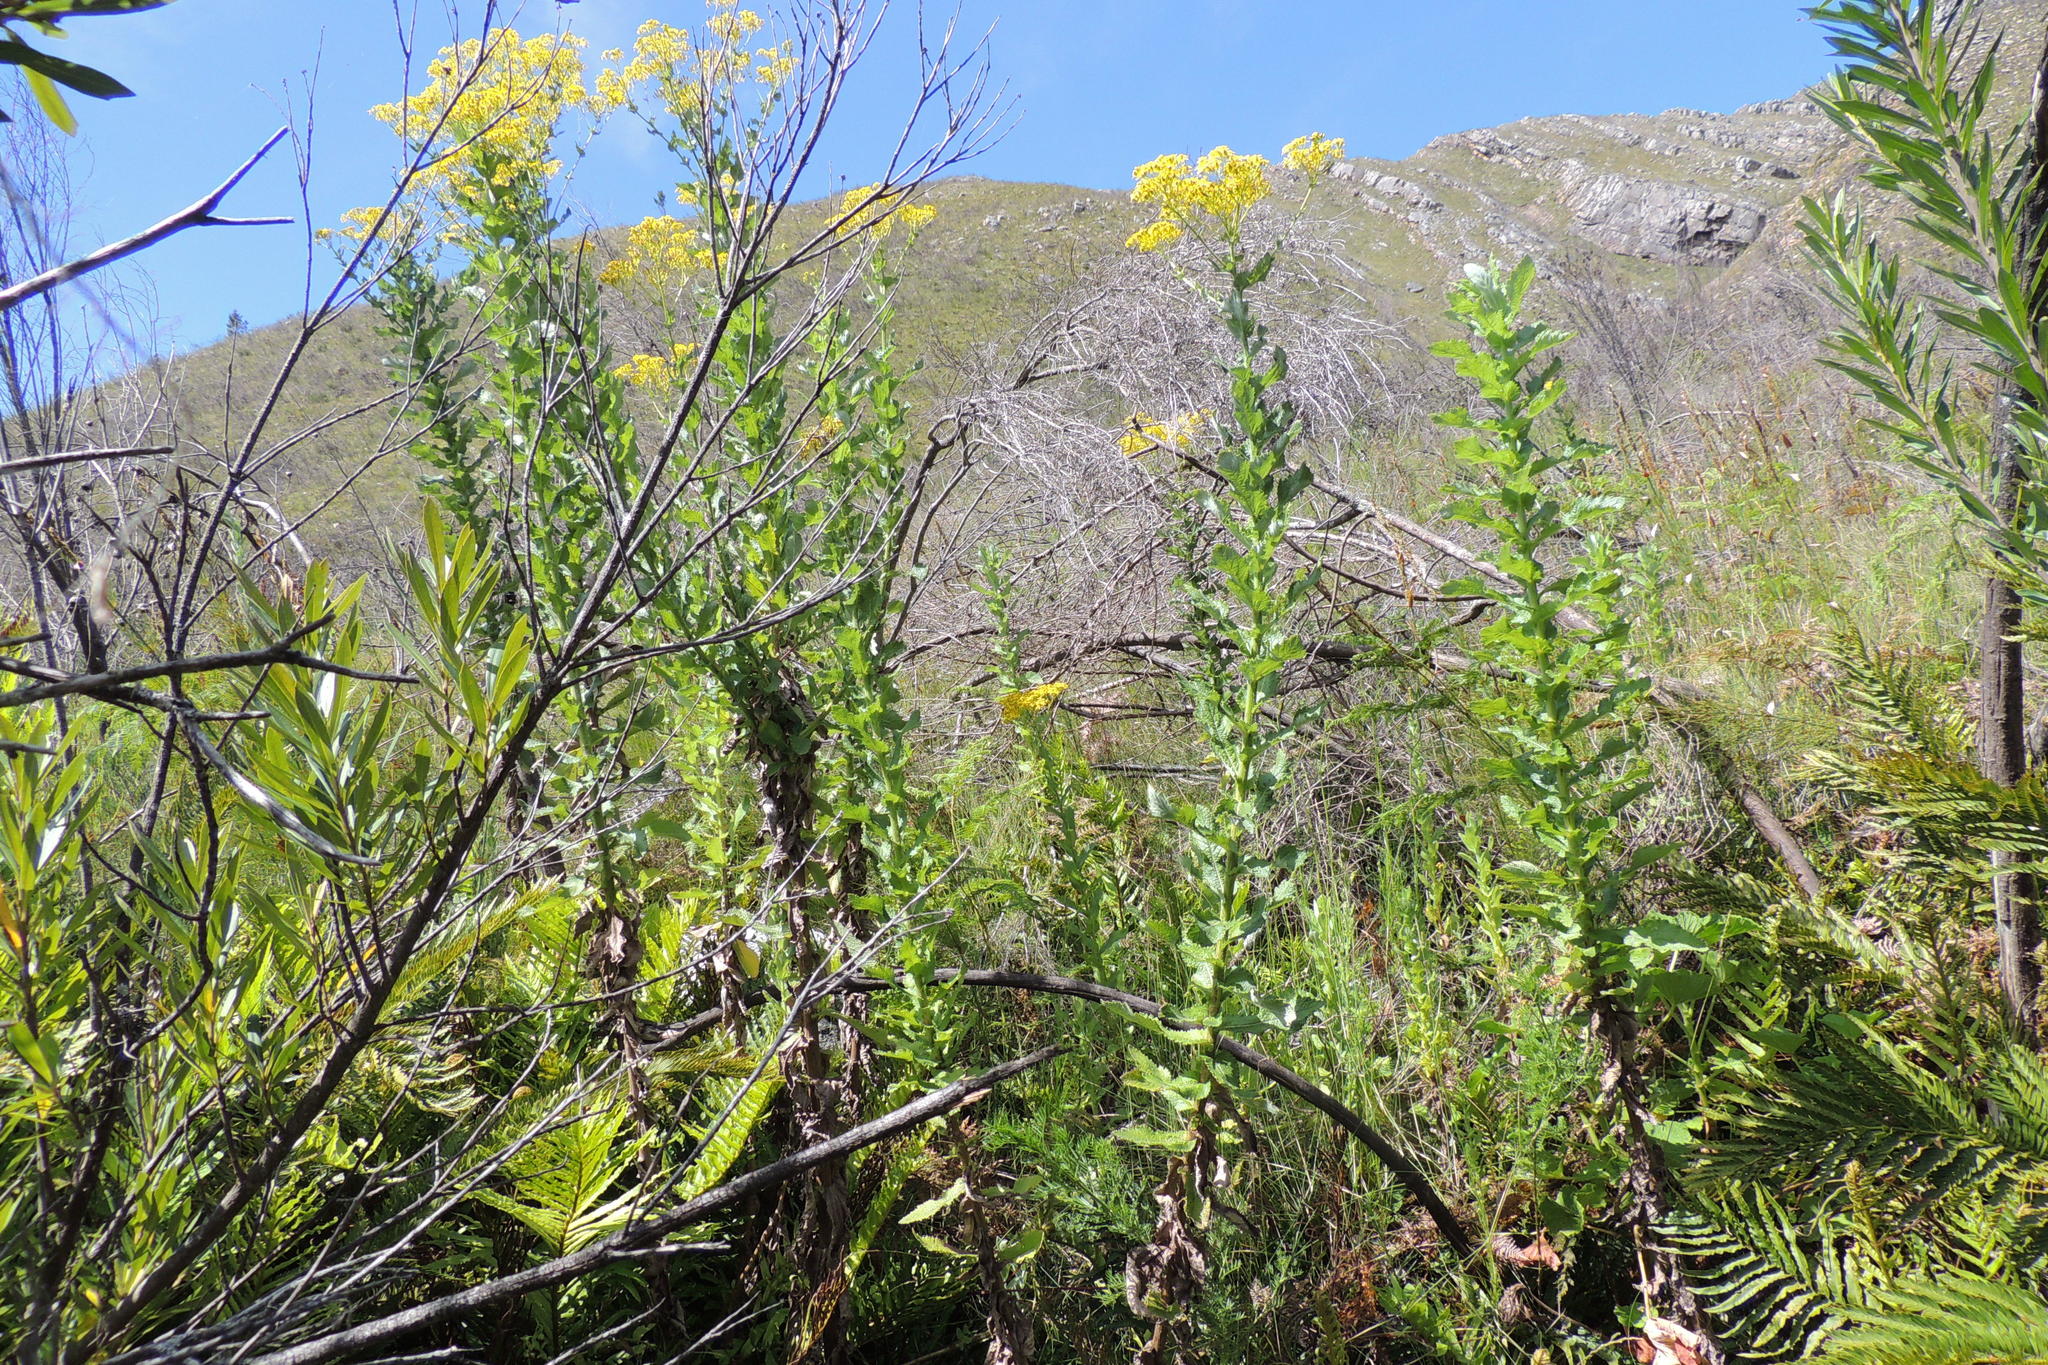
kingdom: Plantae
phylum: Tracheophyta
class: Magnoliopsida
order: Asterales
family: Asteraceae
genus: Senecio
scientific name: Senecio rigidus
